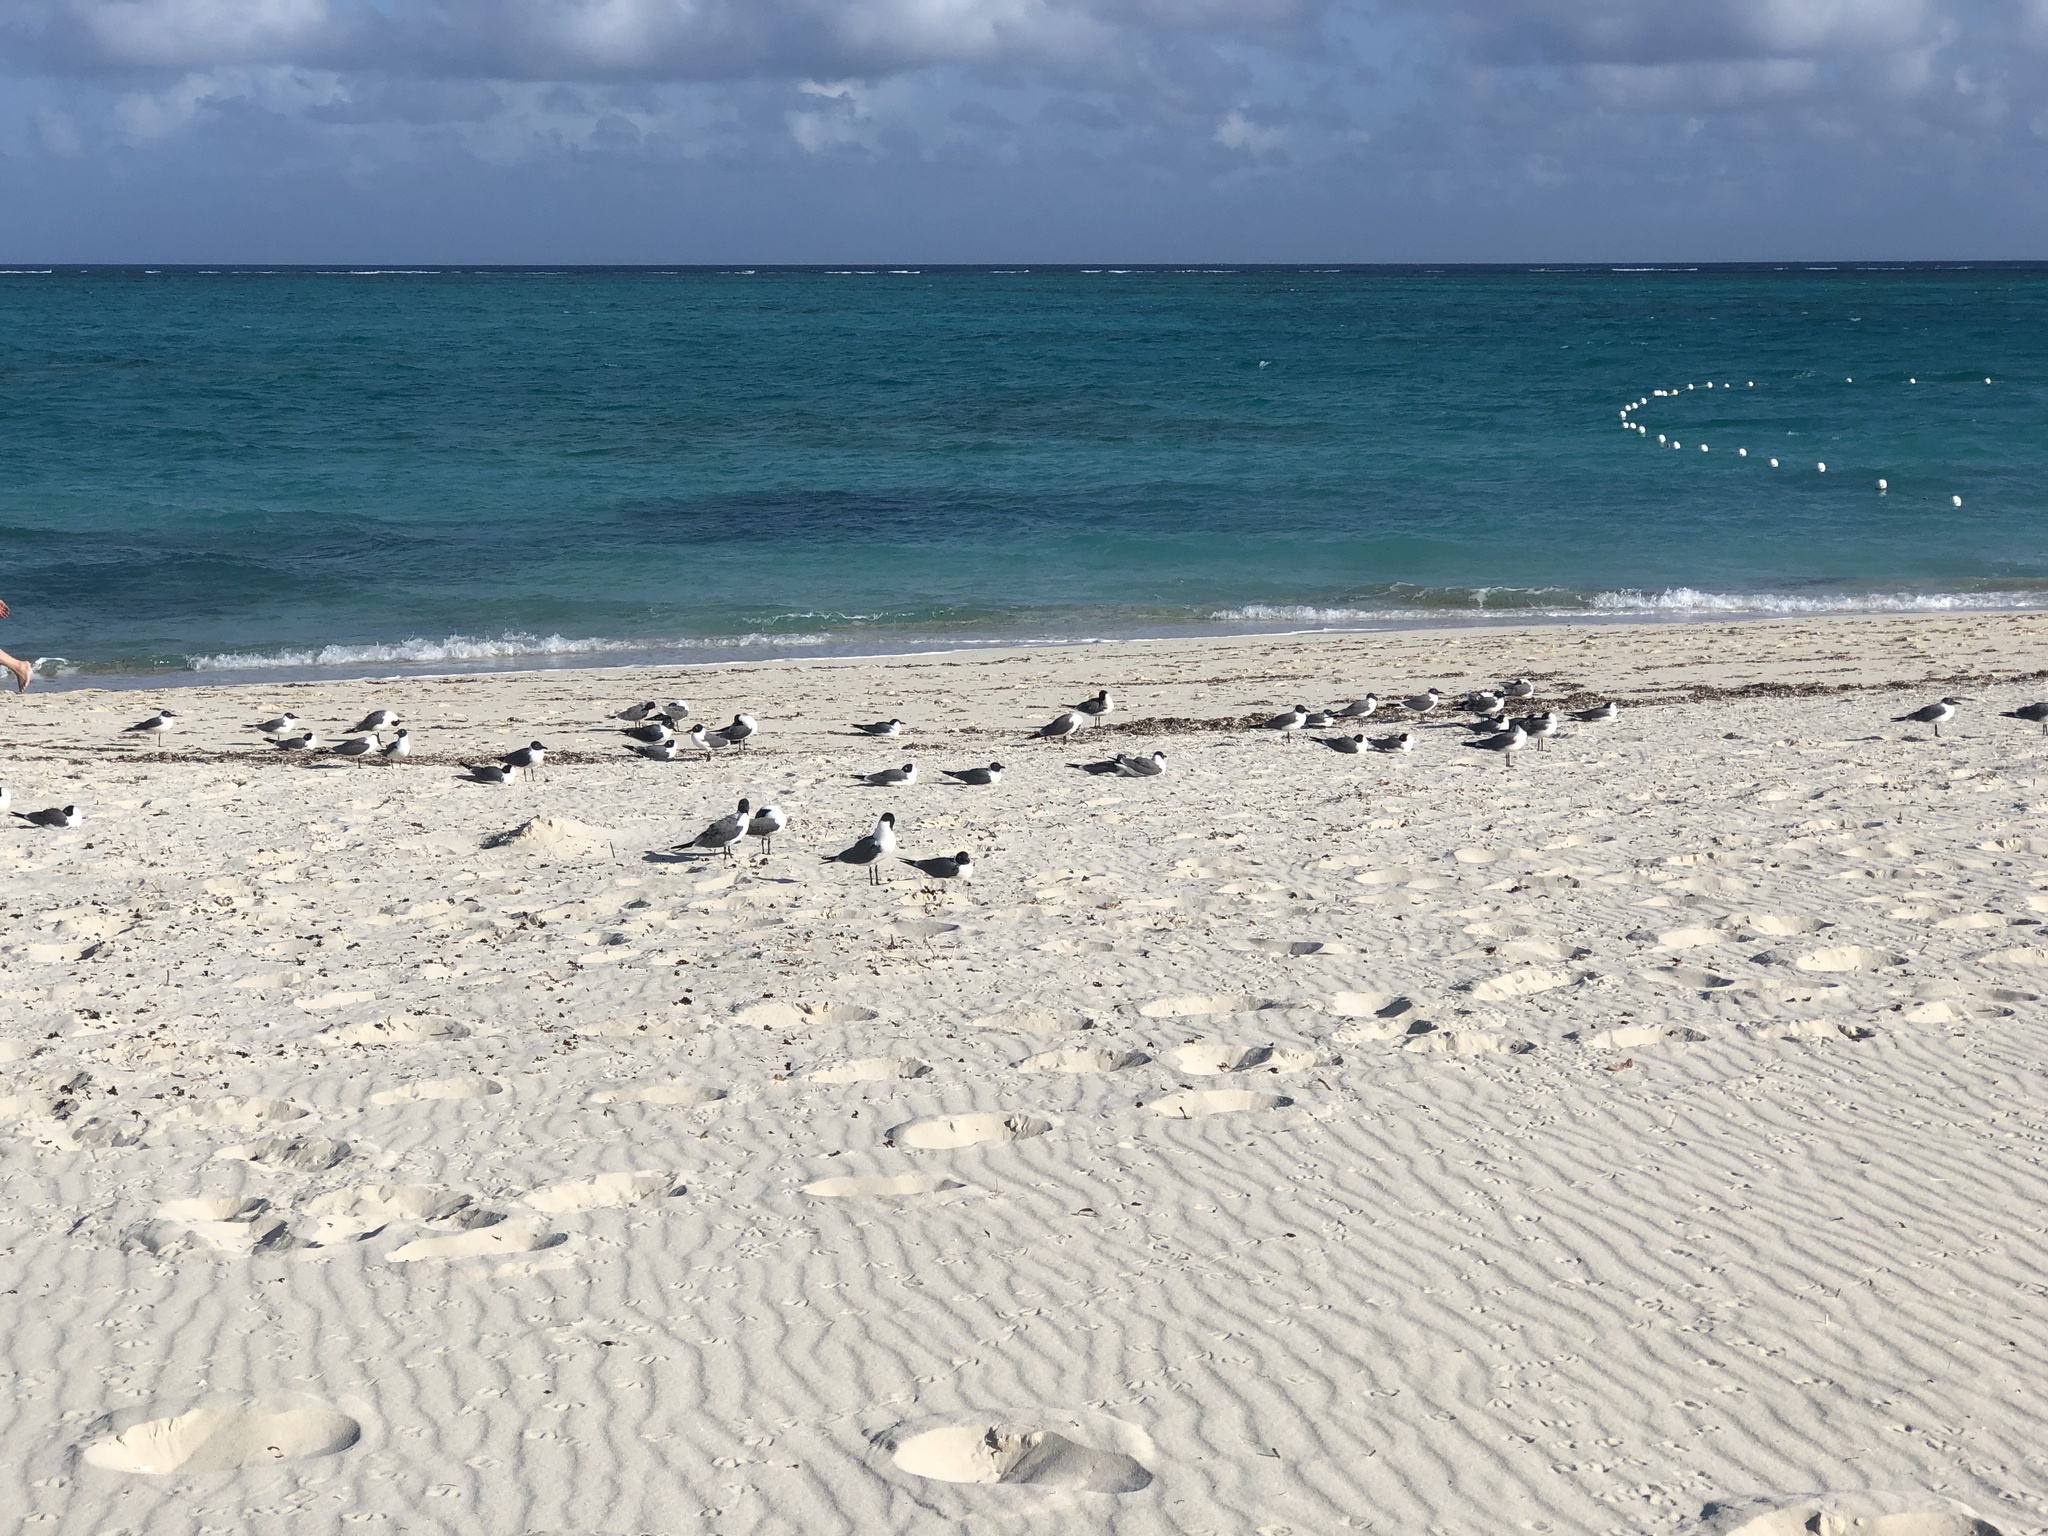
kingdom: Animalia
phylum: Chordata
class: Aves
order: Charadriiformes
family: Laridae
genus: Leucophaeus
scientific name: Leucophaeus atricilla
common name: Laughing gull
